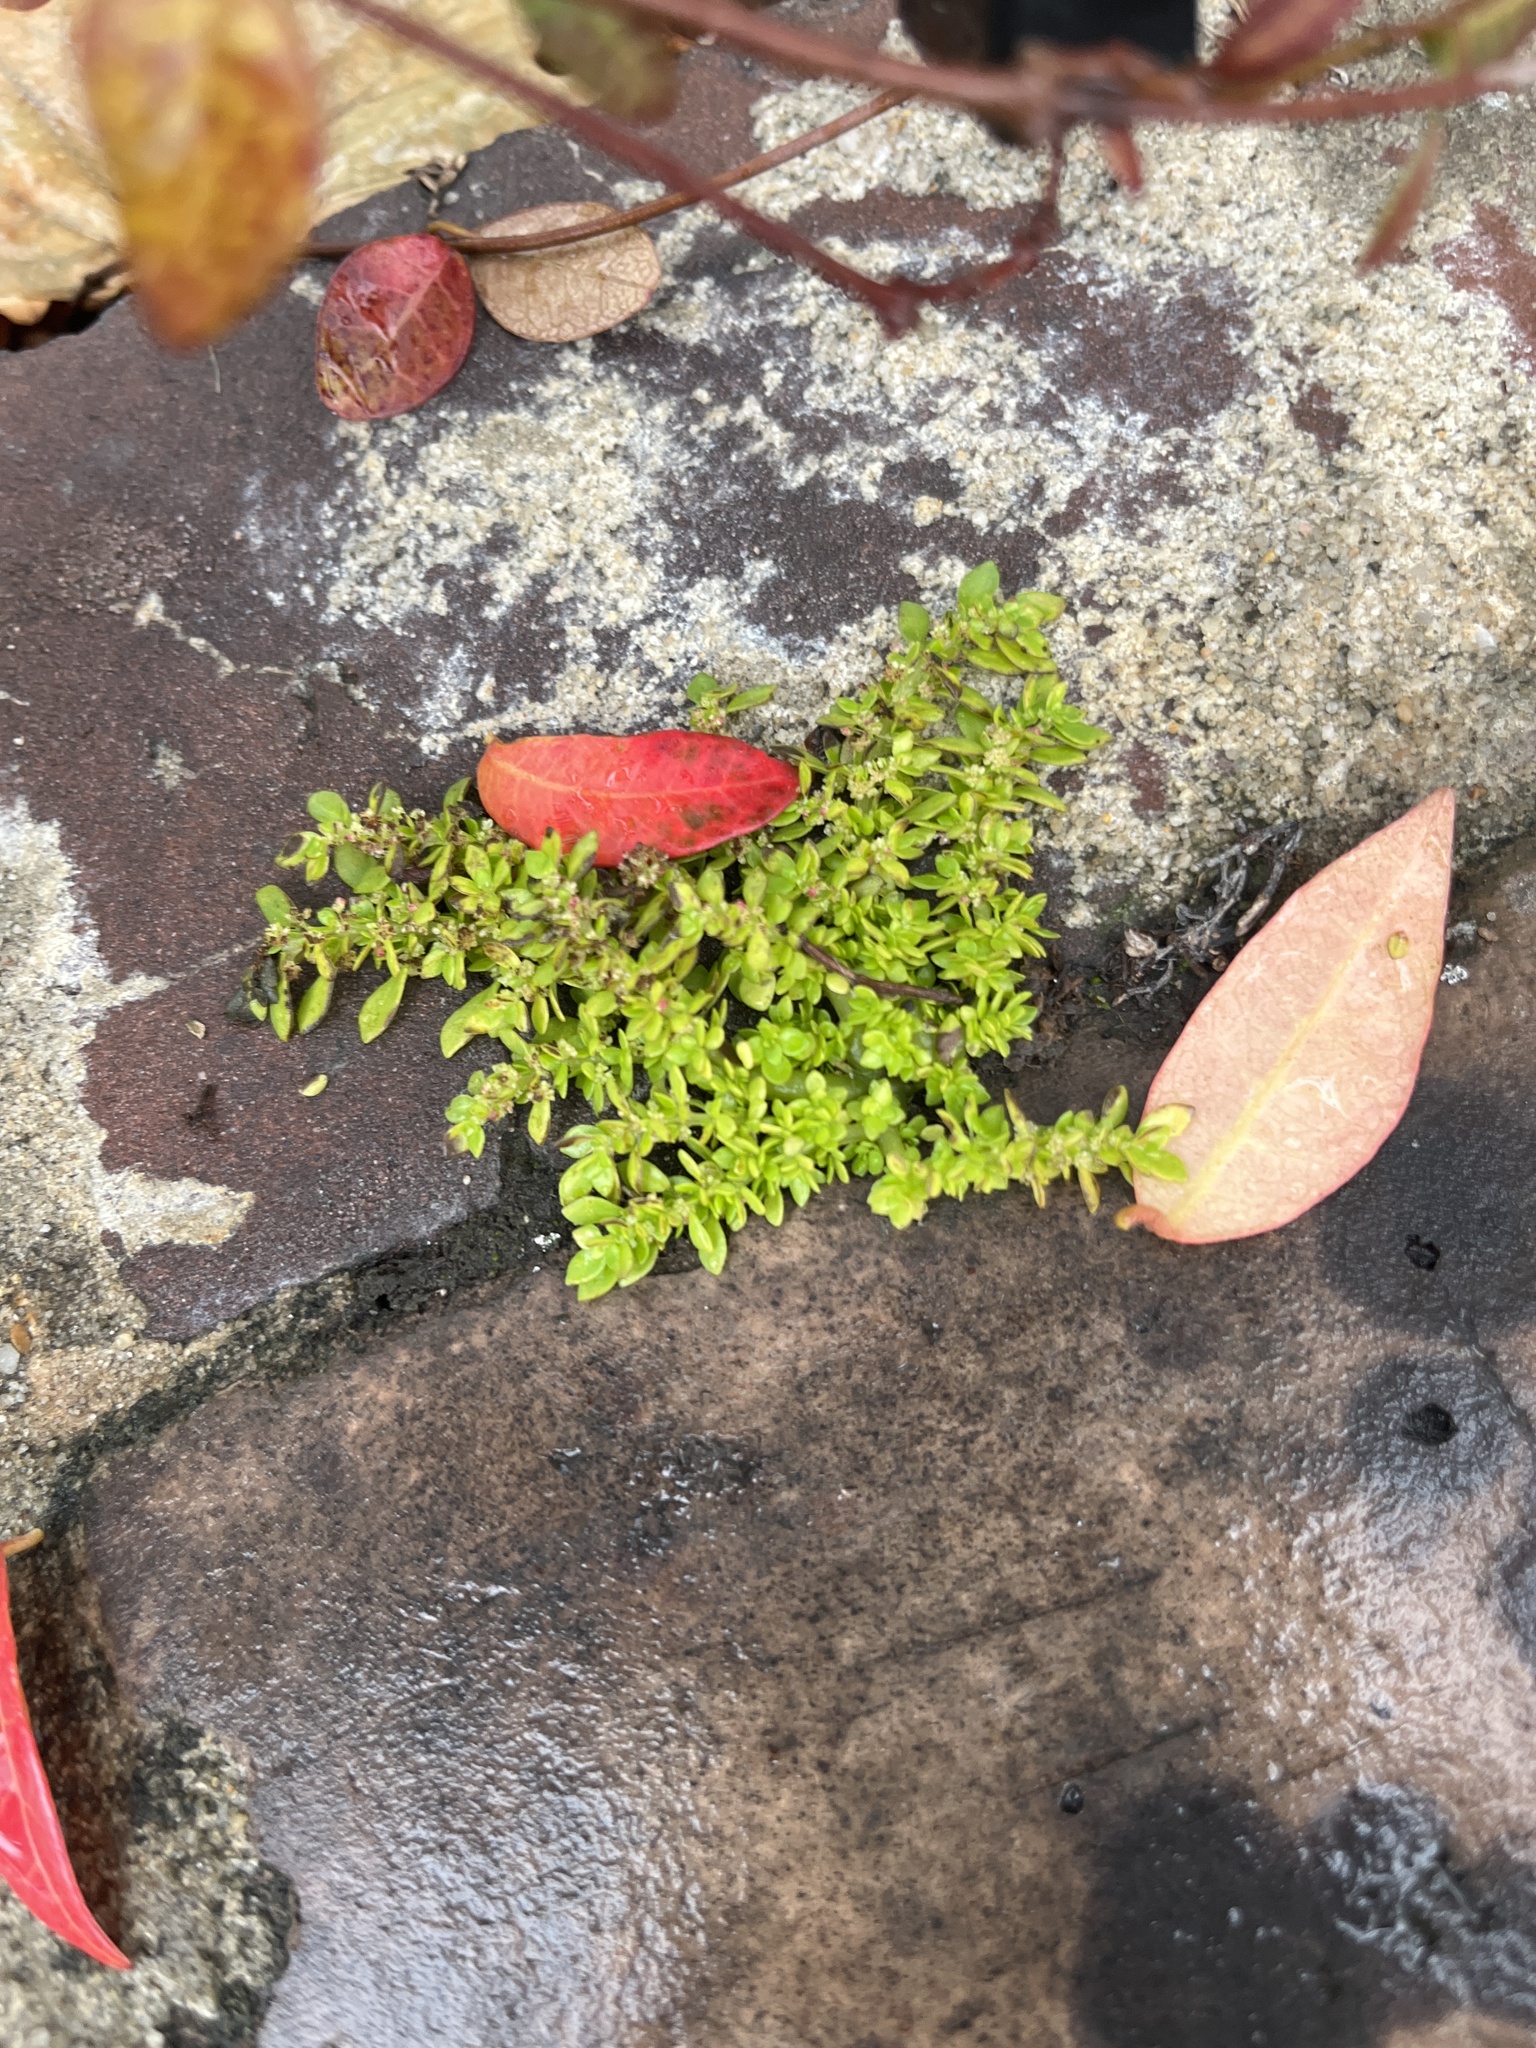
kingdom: Plantae
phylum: Tracheophyta
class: Magnoliopsida
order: Rosales
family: Urticaceae
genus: Pilea
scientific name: Pilea microphylla
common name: Artillery-plant
